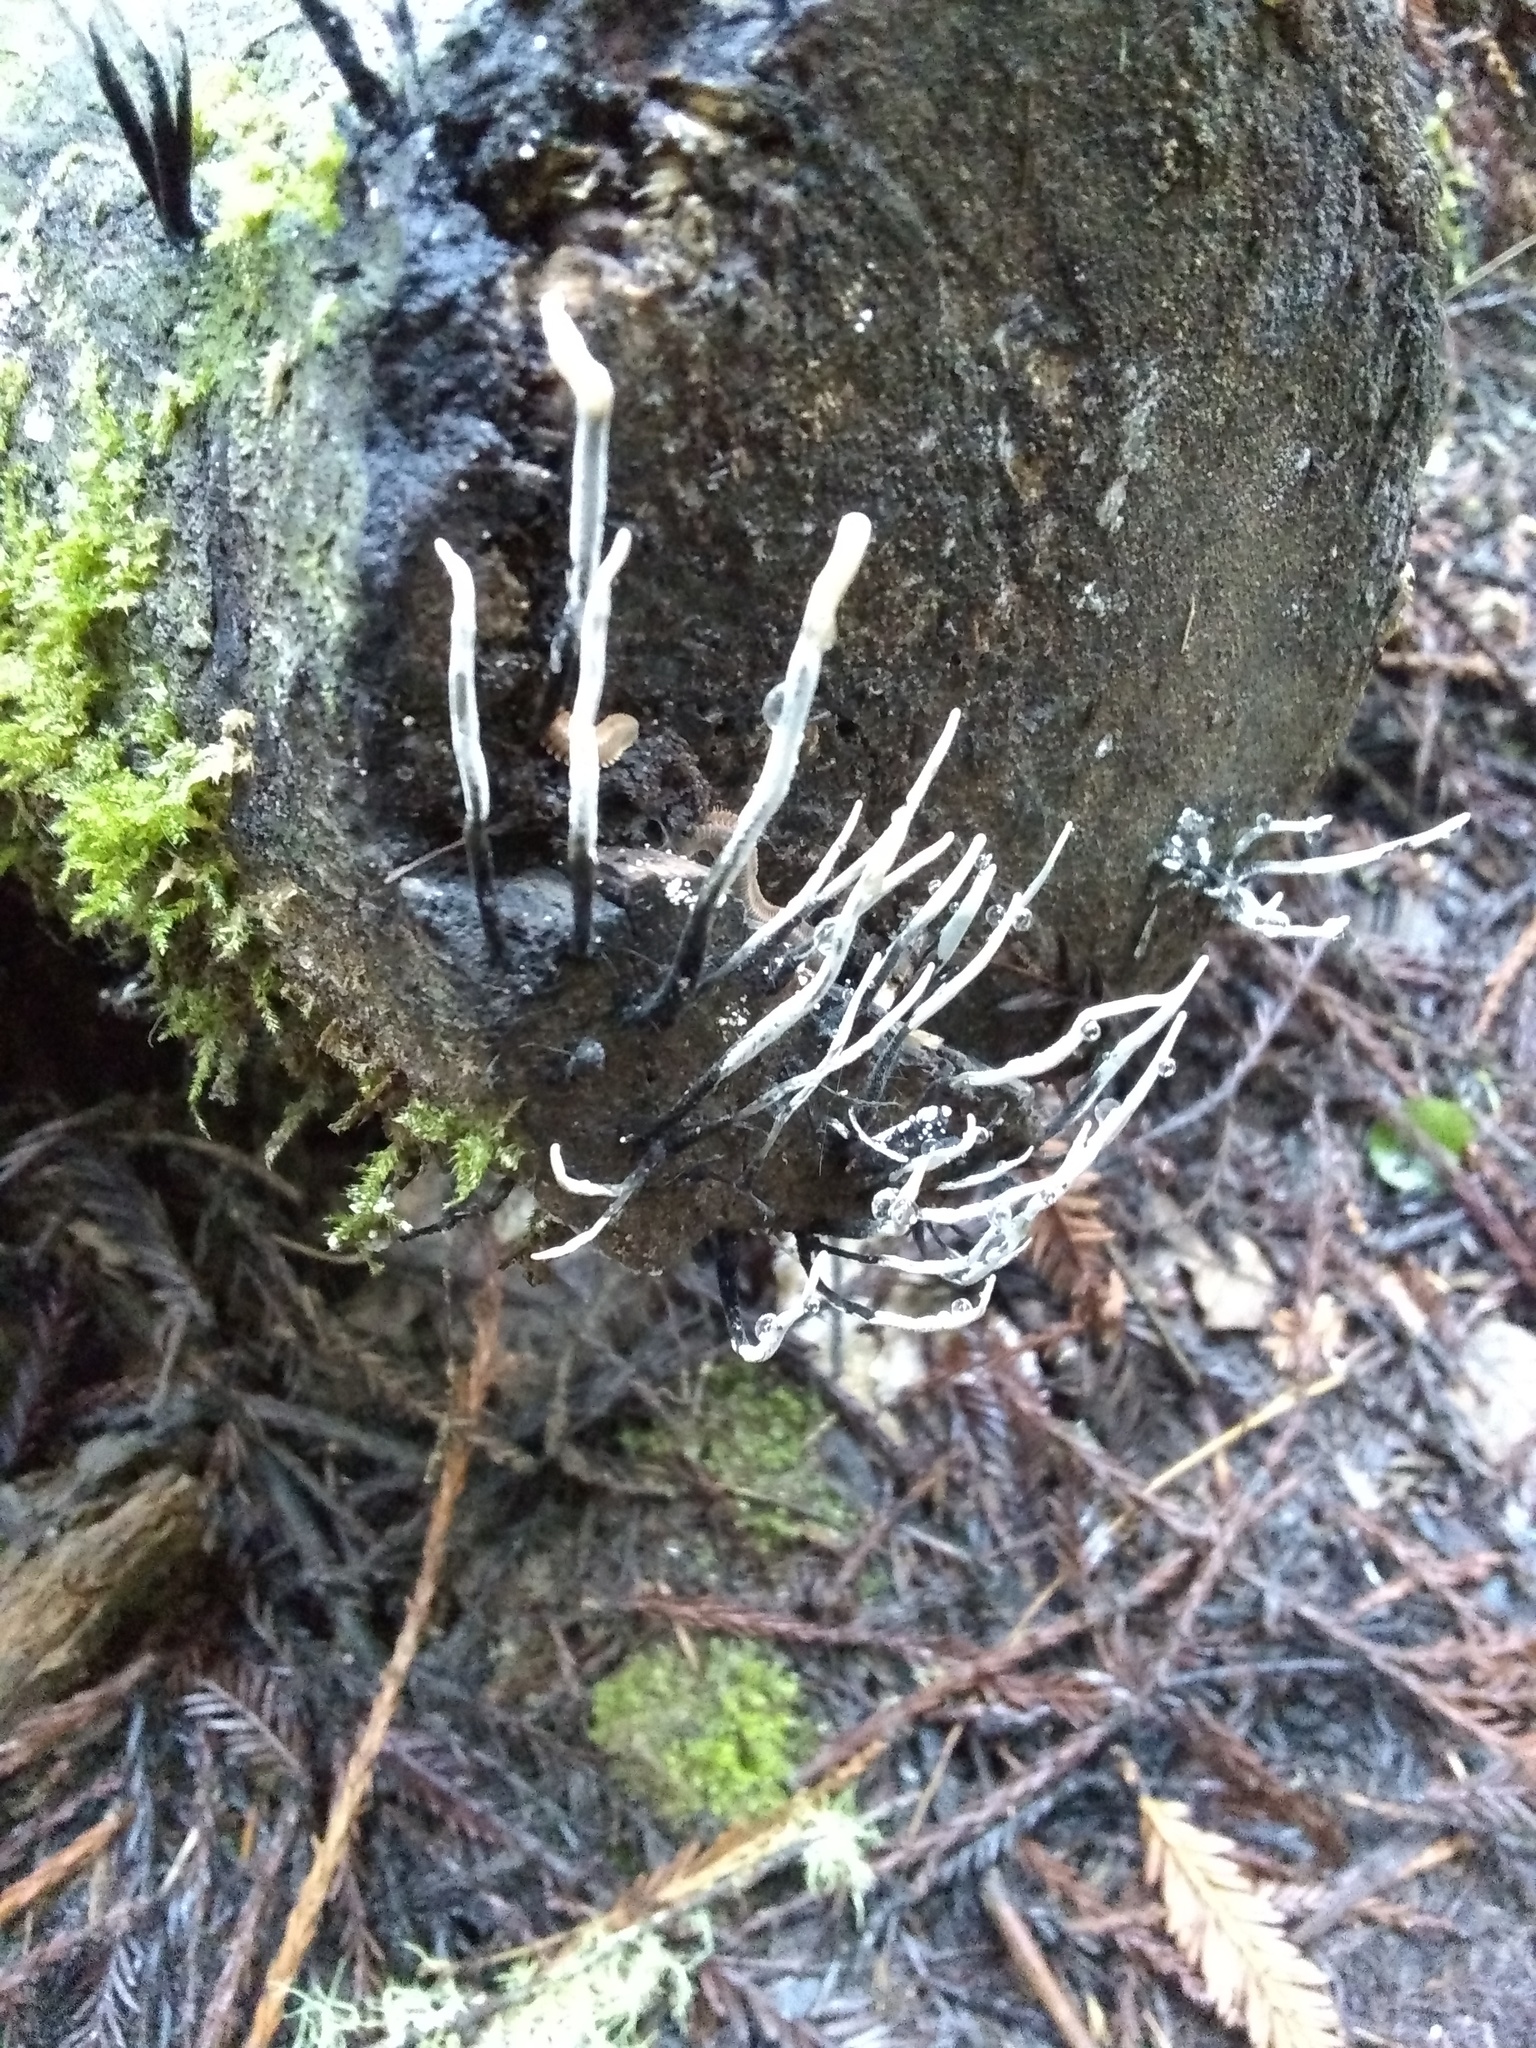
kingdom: Fungi
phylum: Ascomycota
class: Sordariomycetes
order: Xylariales
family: Xylariaceae
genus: Xylaria
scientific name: Xylaria hypoxylon
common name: Candle-snuff fungus
